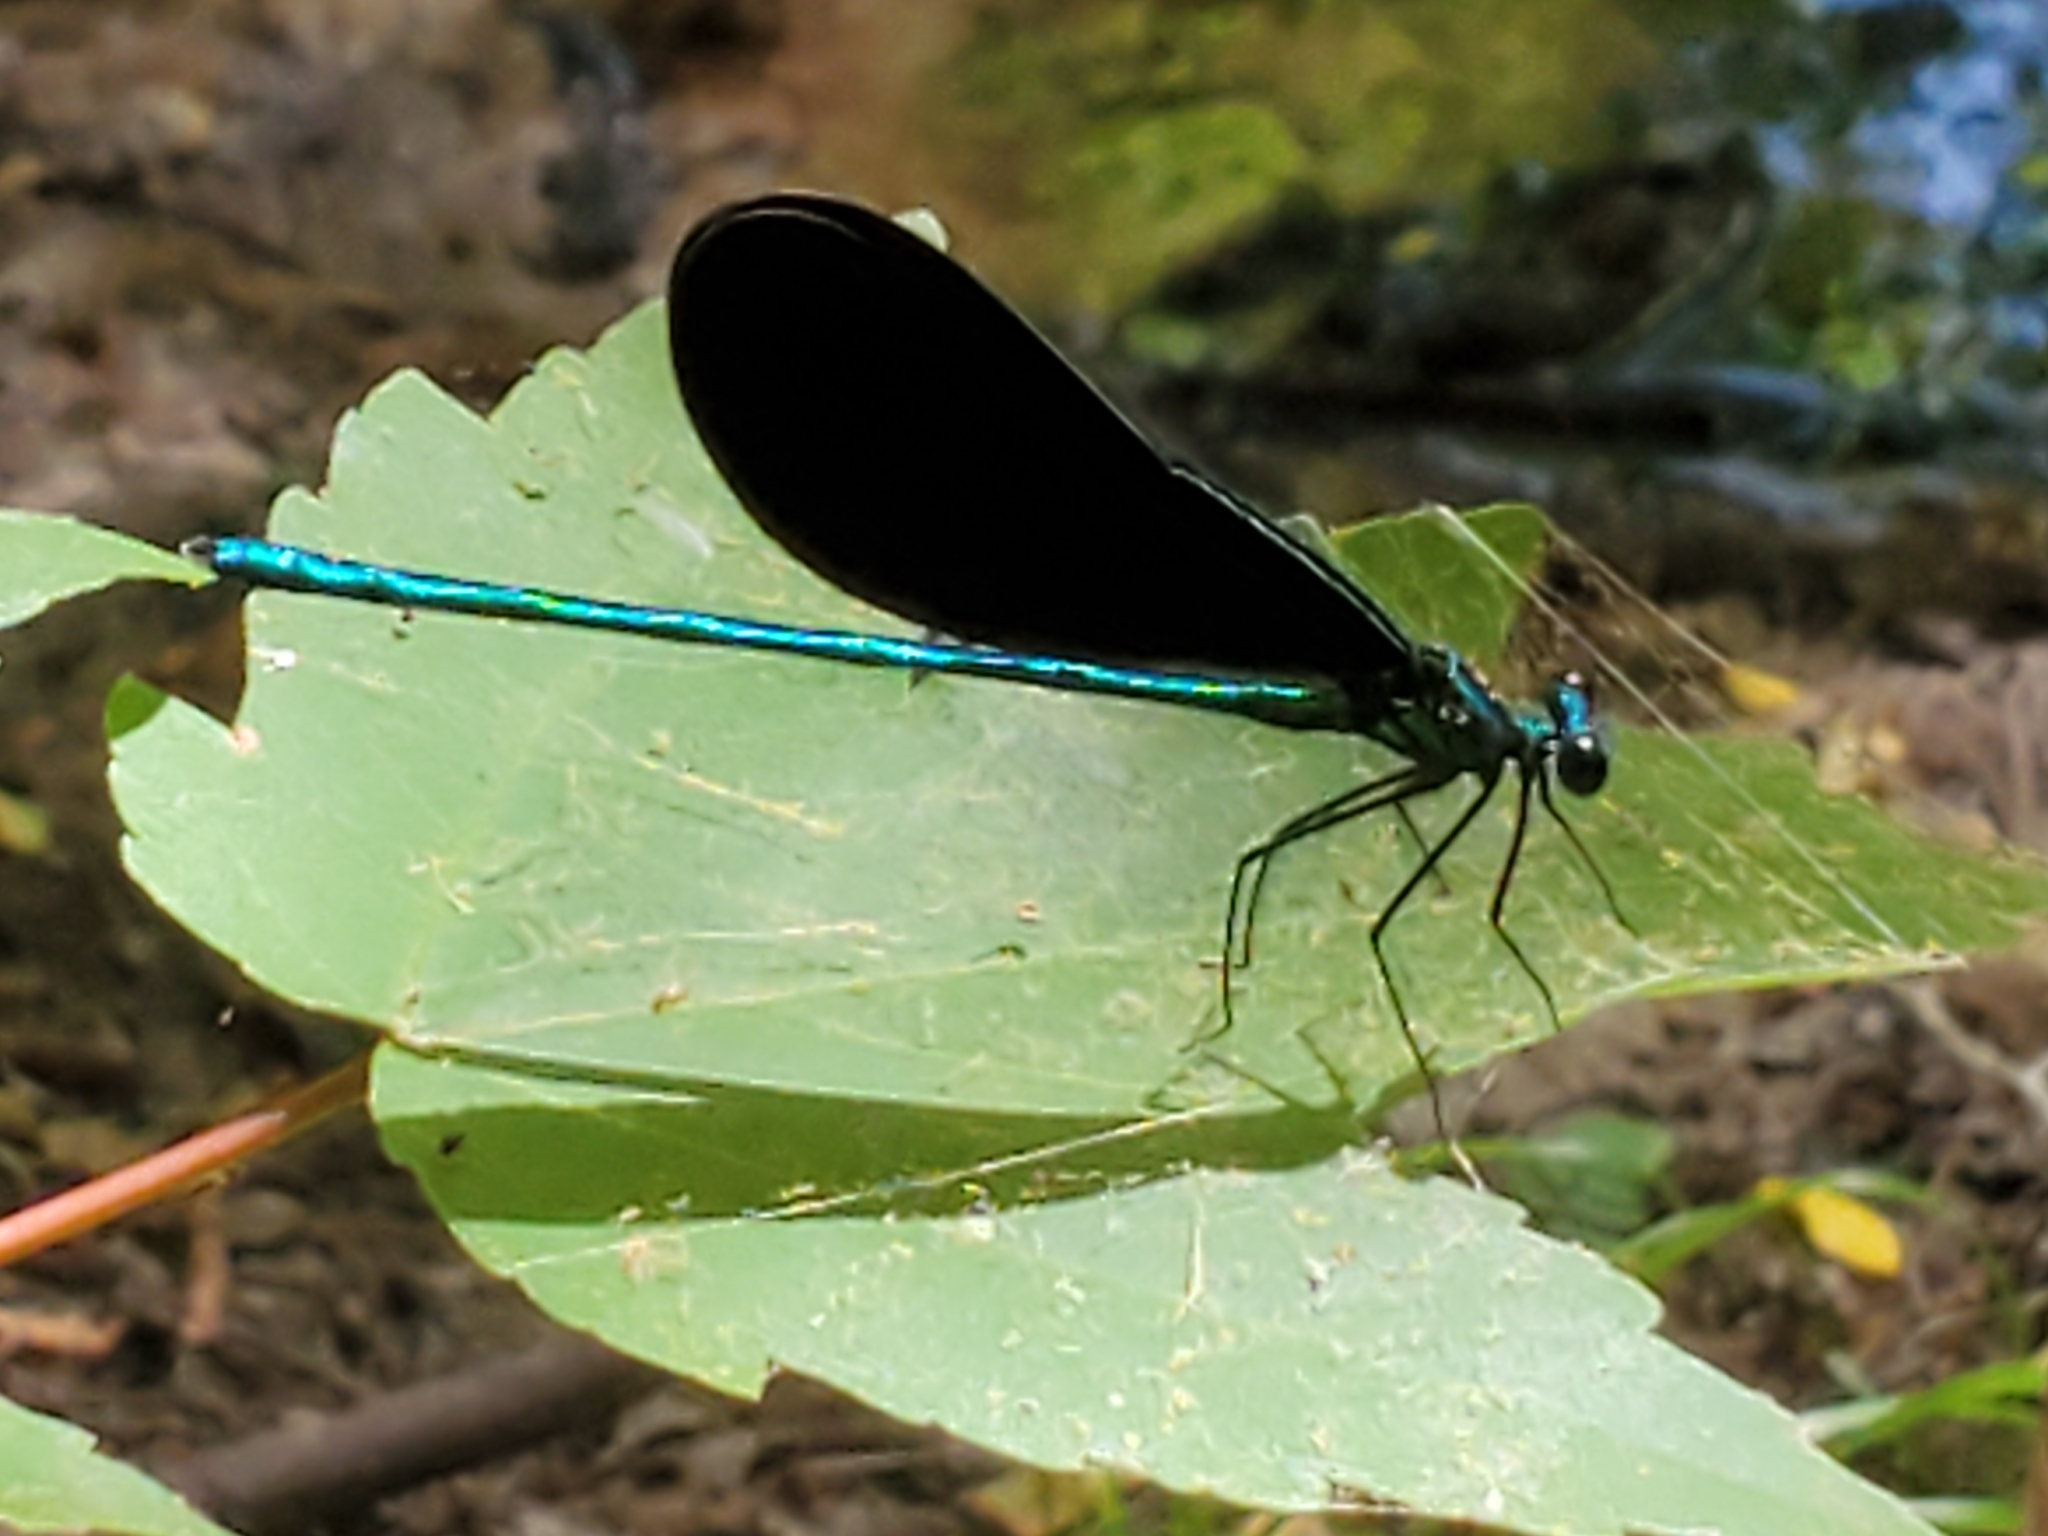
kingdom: Animalia
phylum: Arthropoda
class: Insecta
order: Odonata
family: Calopterygidae
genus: Calopteryx
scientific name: Calopteryx maculata
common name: Ebony jewelwing
